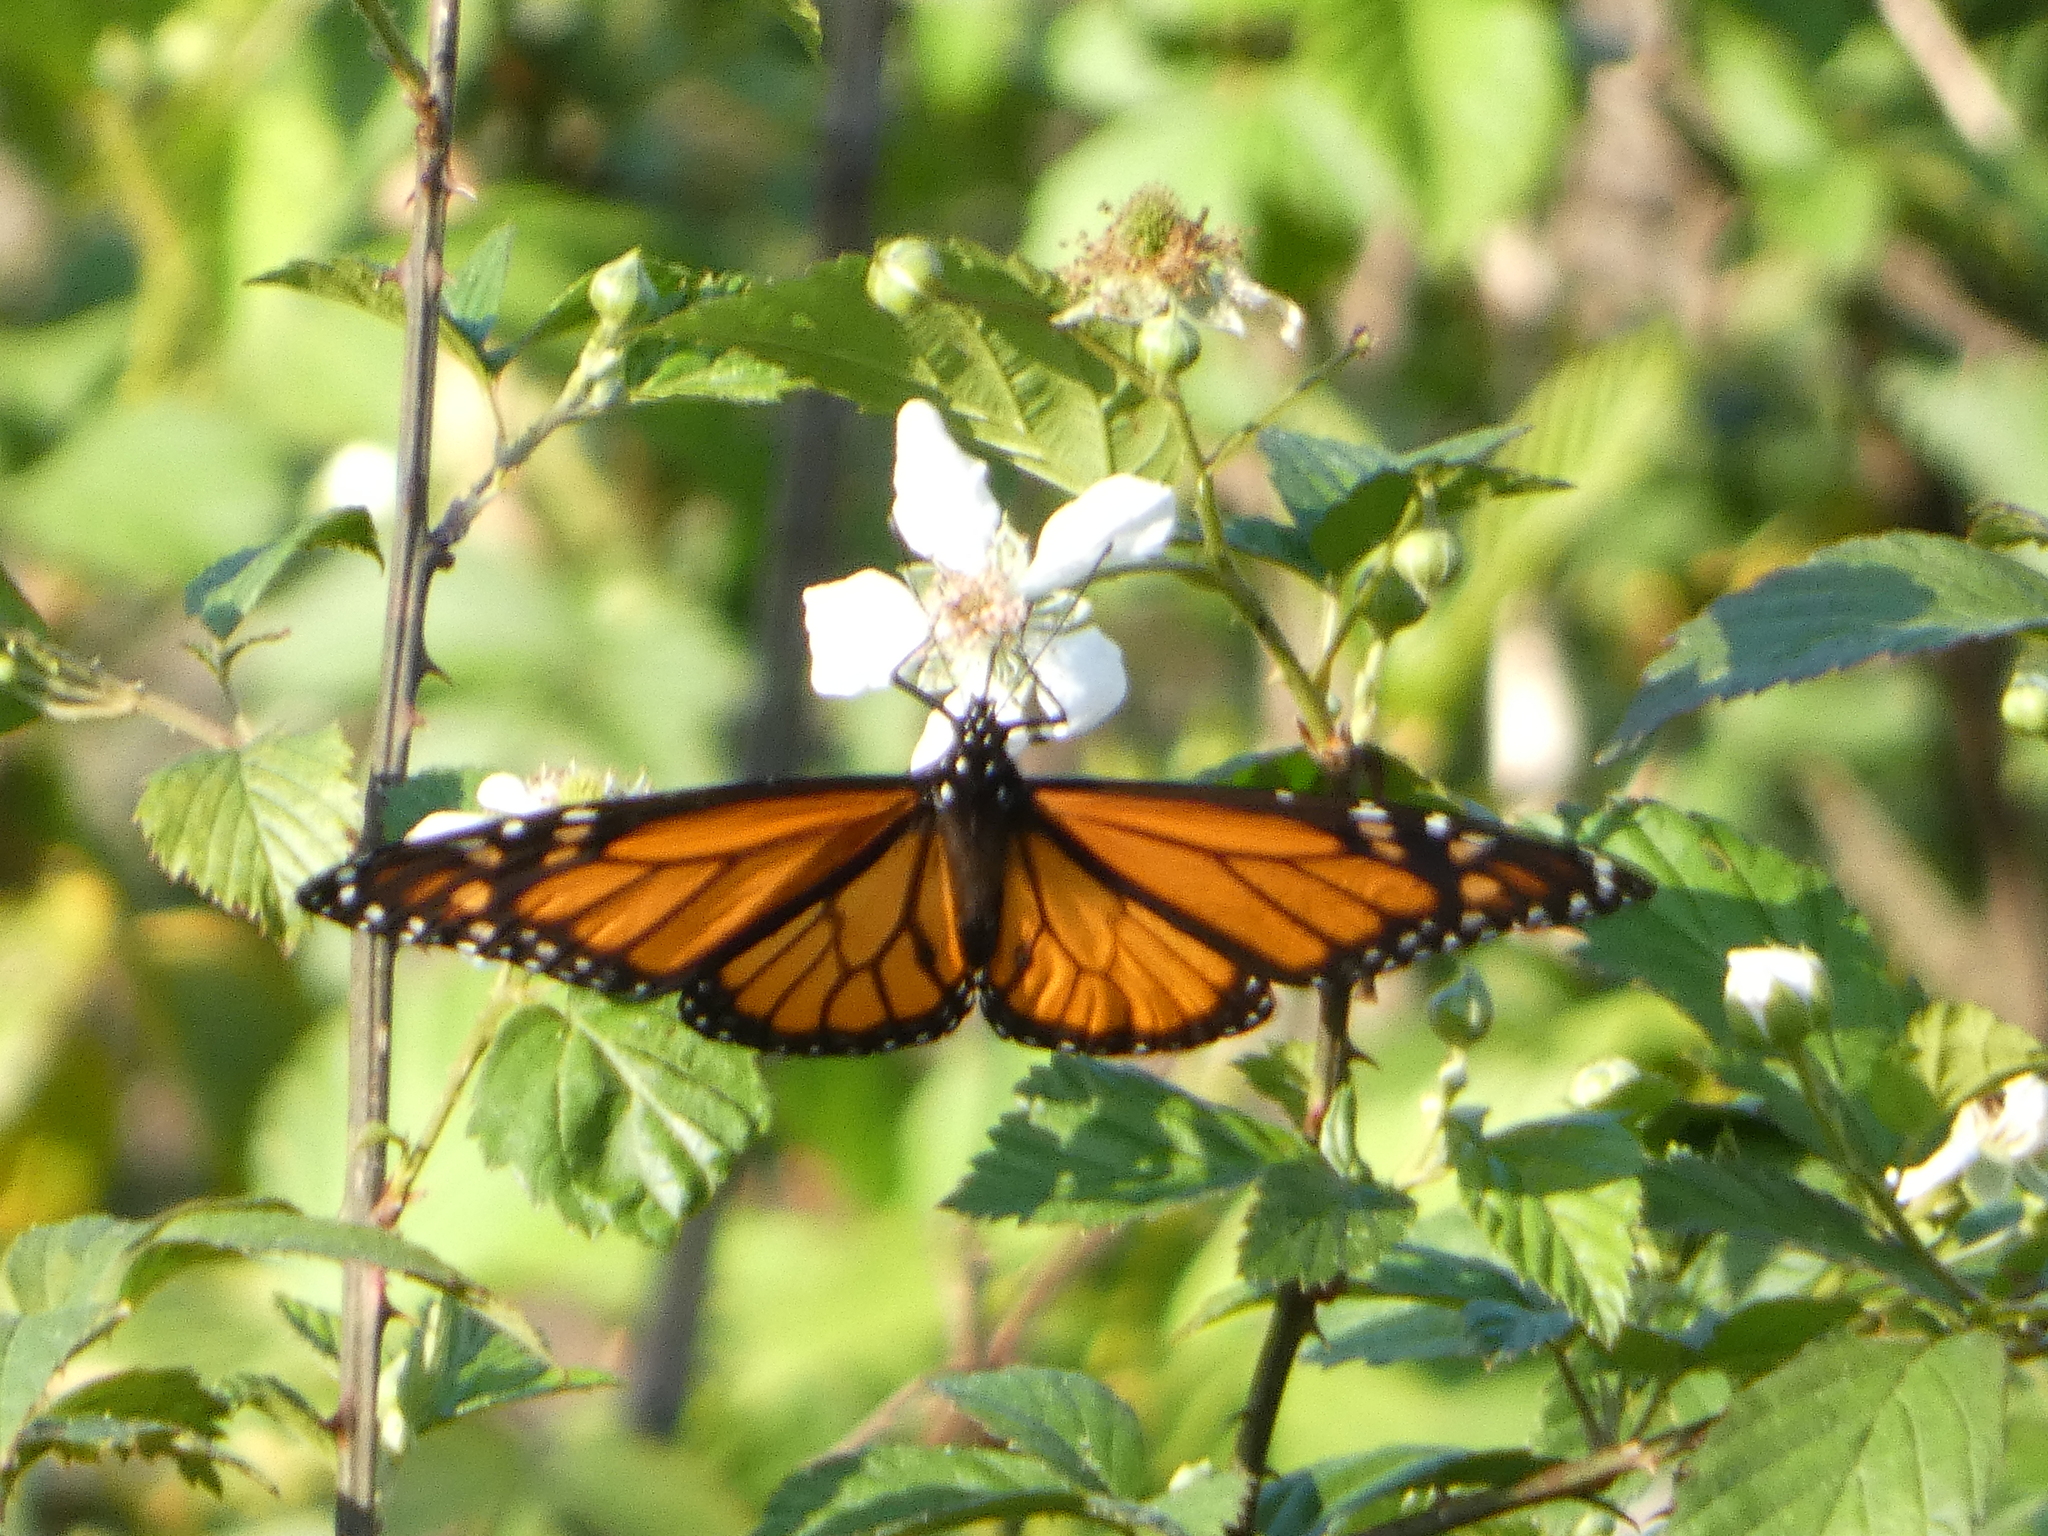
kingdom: Animalia
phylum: Arthropoda
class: Insecta
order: Lepidoptera
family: Nymphalidae
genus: Danaus
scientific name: Danaus plexippus
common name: Monarch
